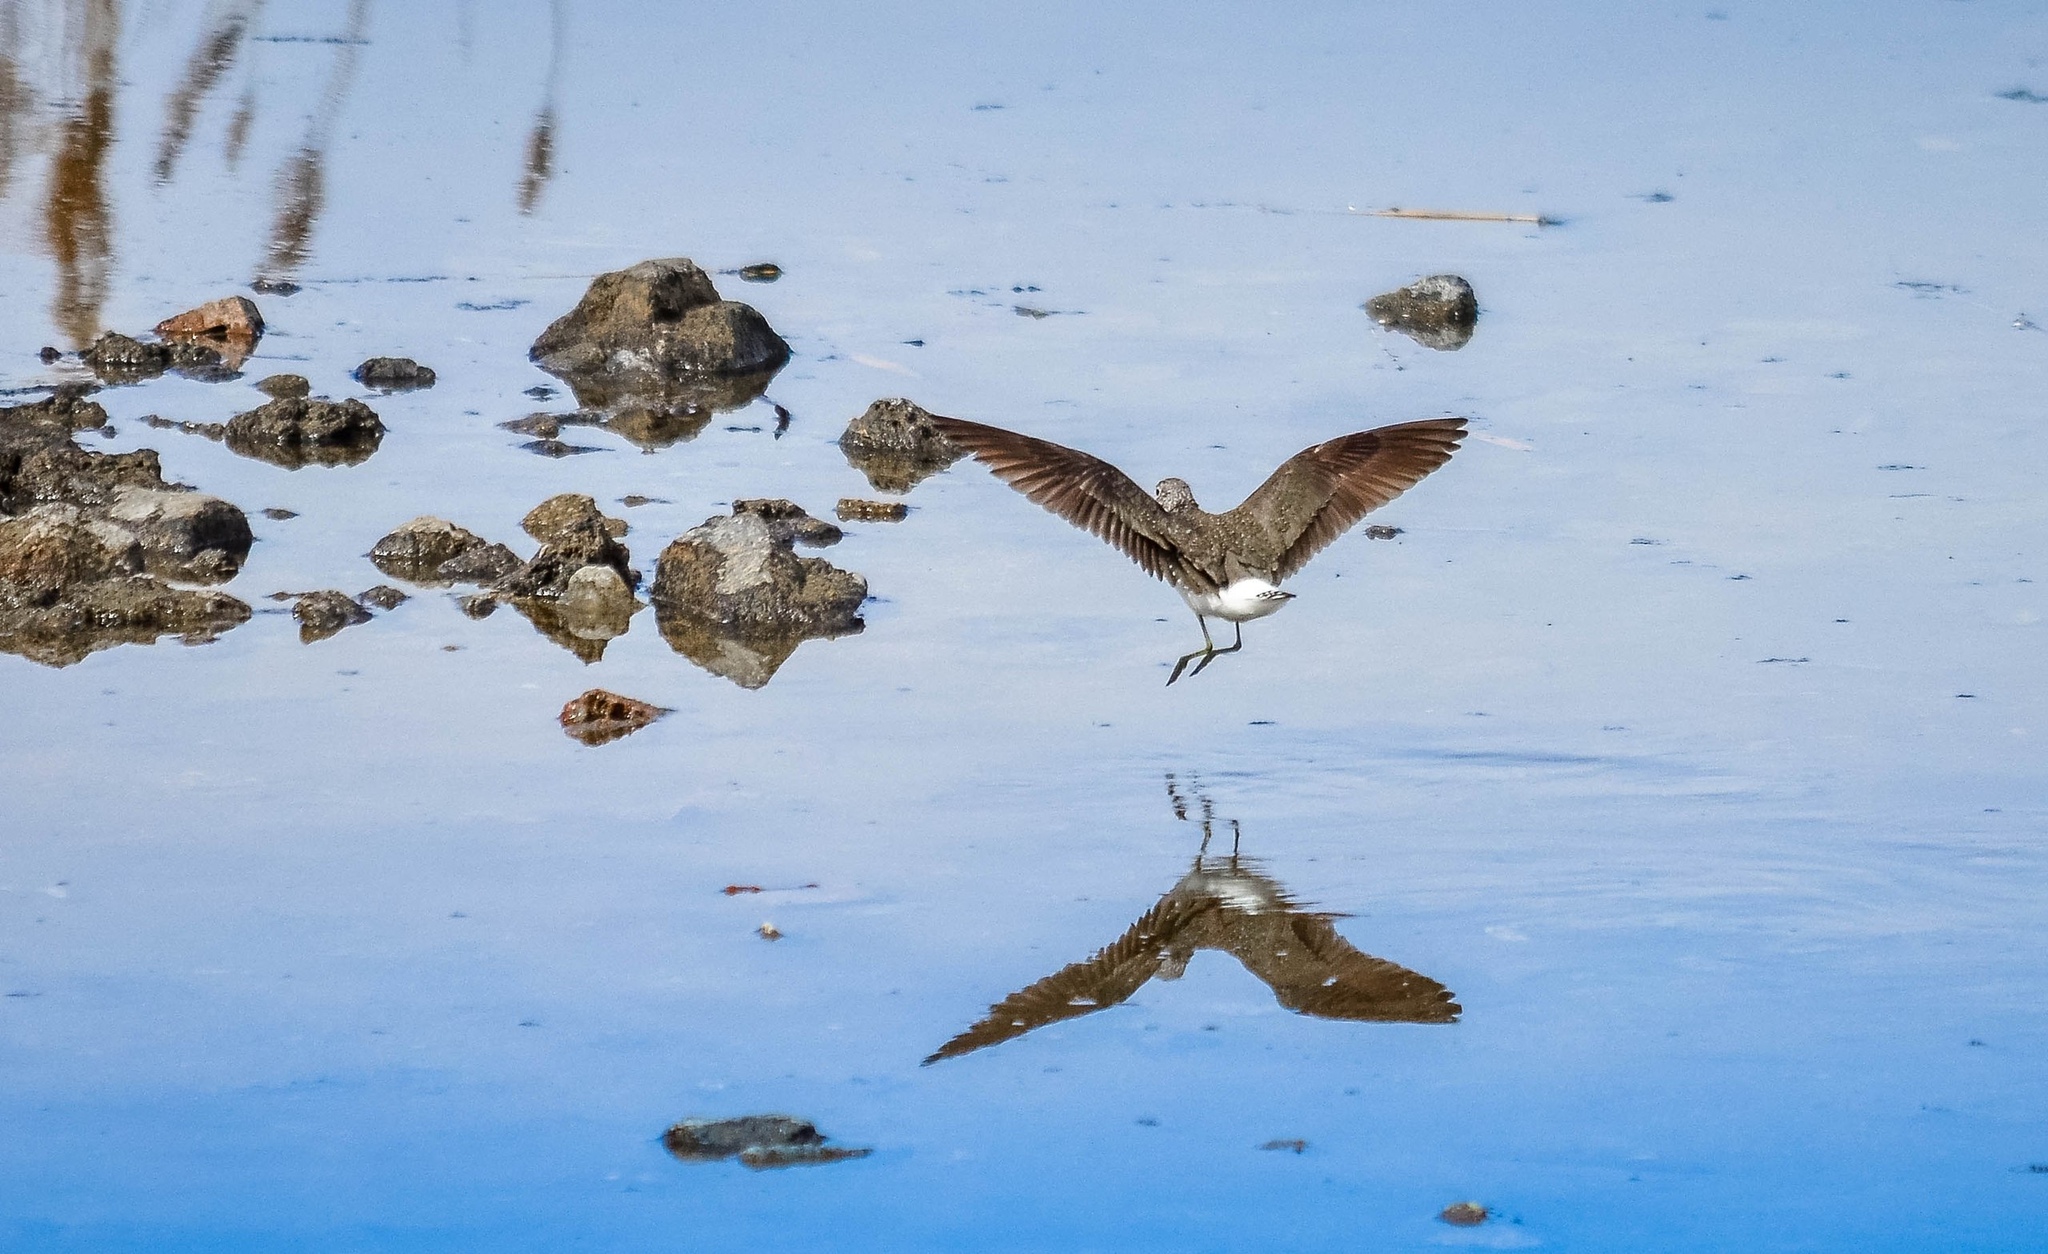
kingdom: Animalia
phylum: Chordata
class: Aves
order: Charadriiformes
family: Scolopacidae
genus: Tringa
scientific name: Tringa ochropus
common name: Green sandpiper
